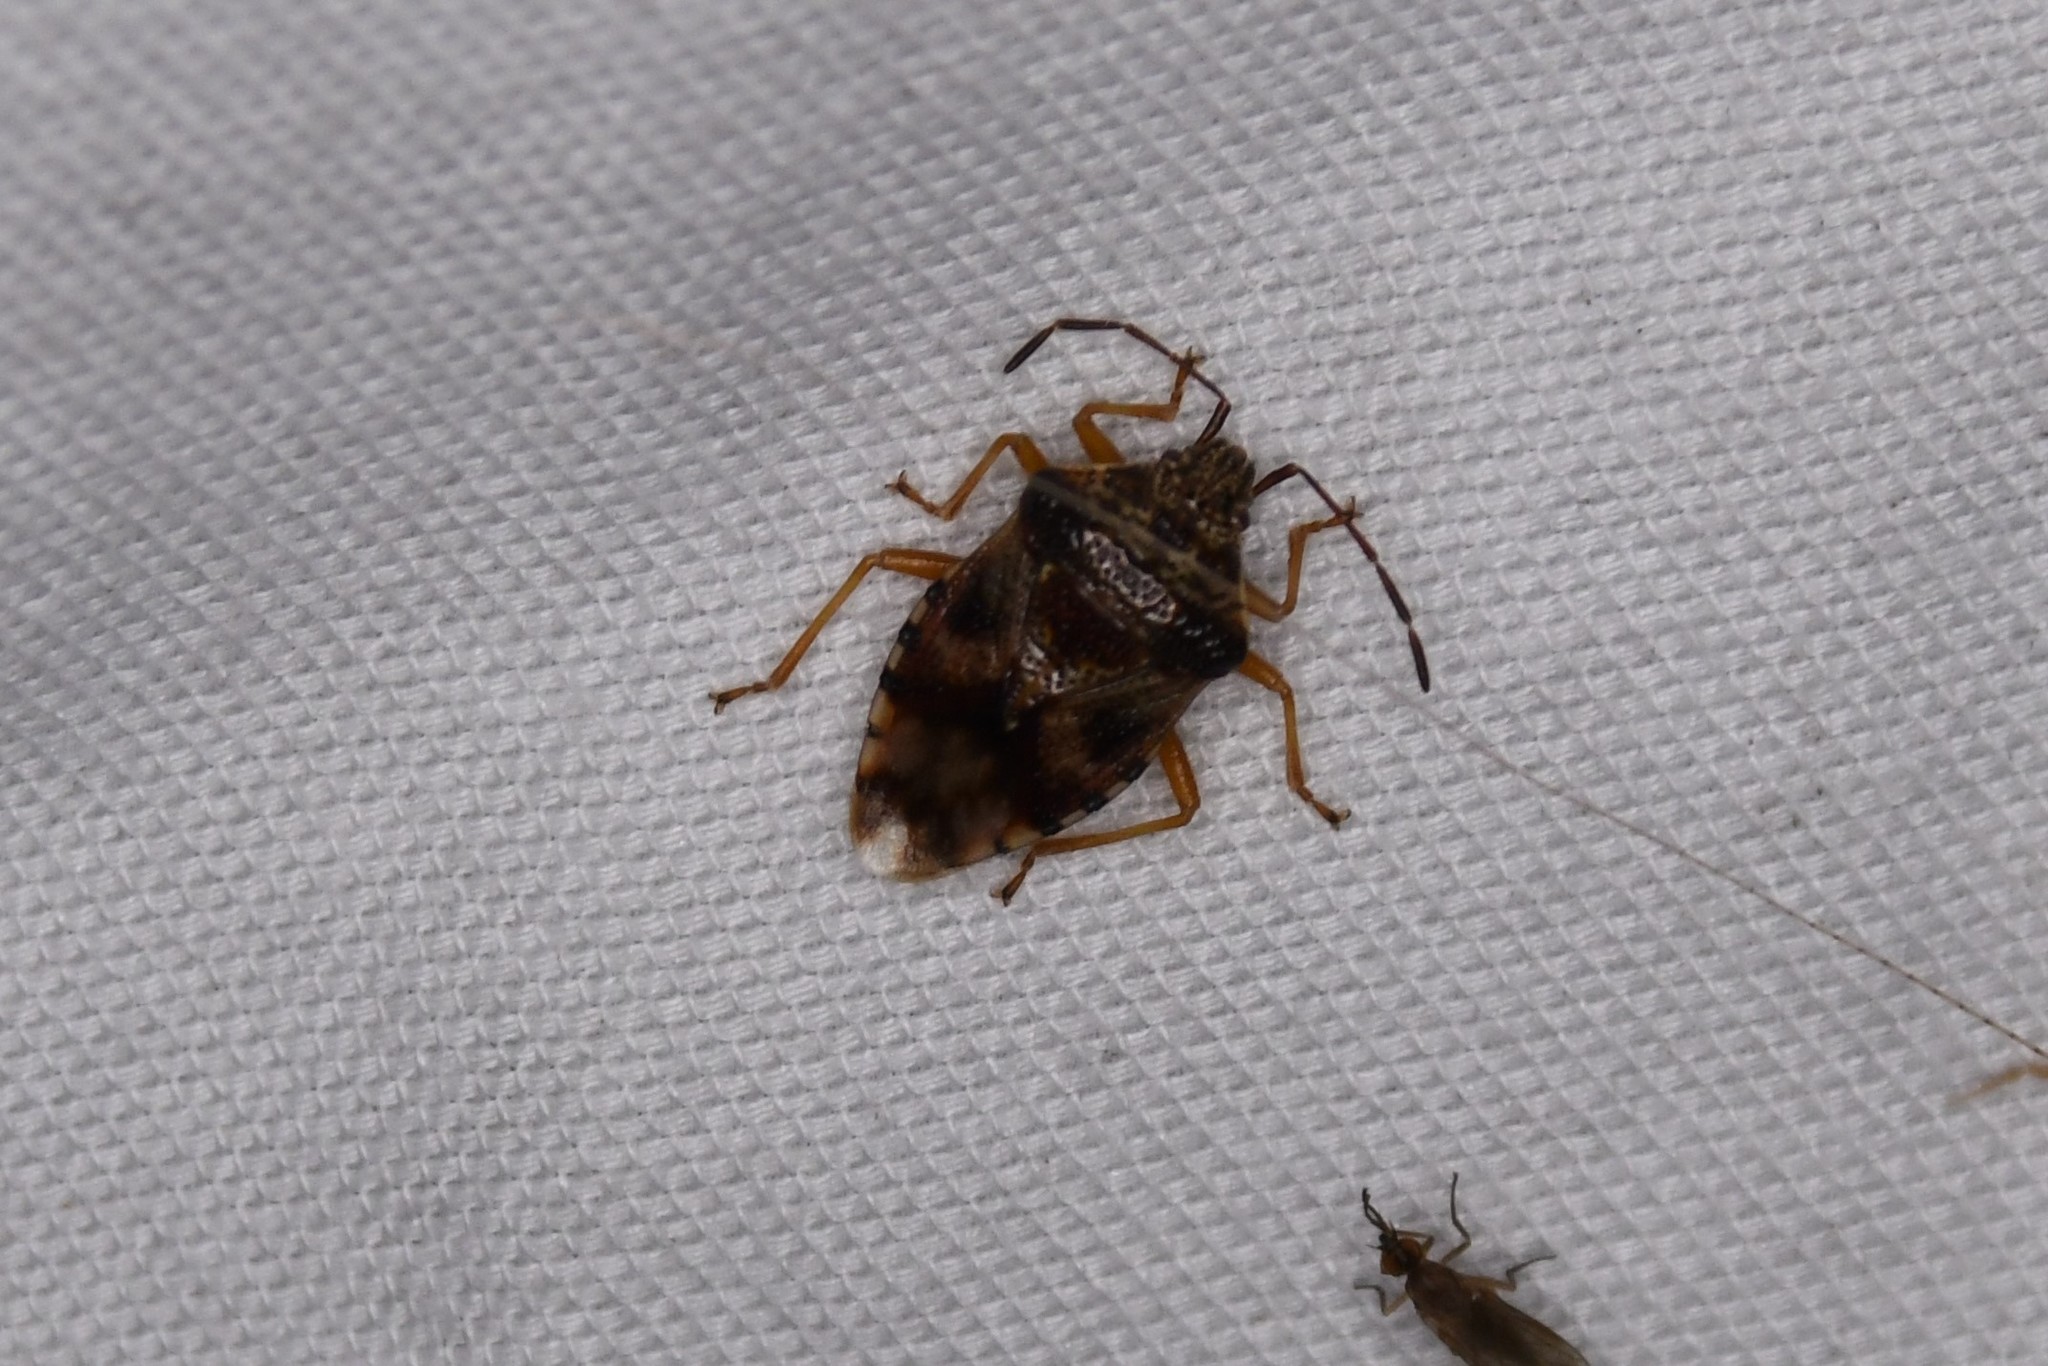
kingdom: Animalia
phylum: Arthropoda
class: Insecta
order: Hemiptera
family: Acanthosomatidae
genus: Elasmucha
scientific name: Elasmucha lateralis
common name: Shield bug
